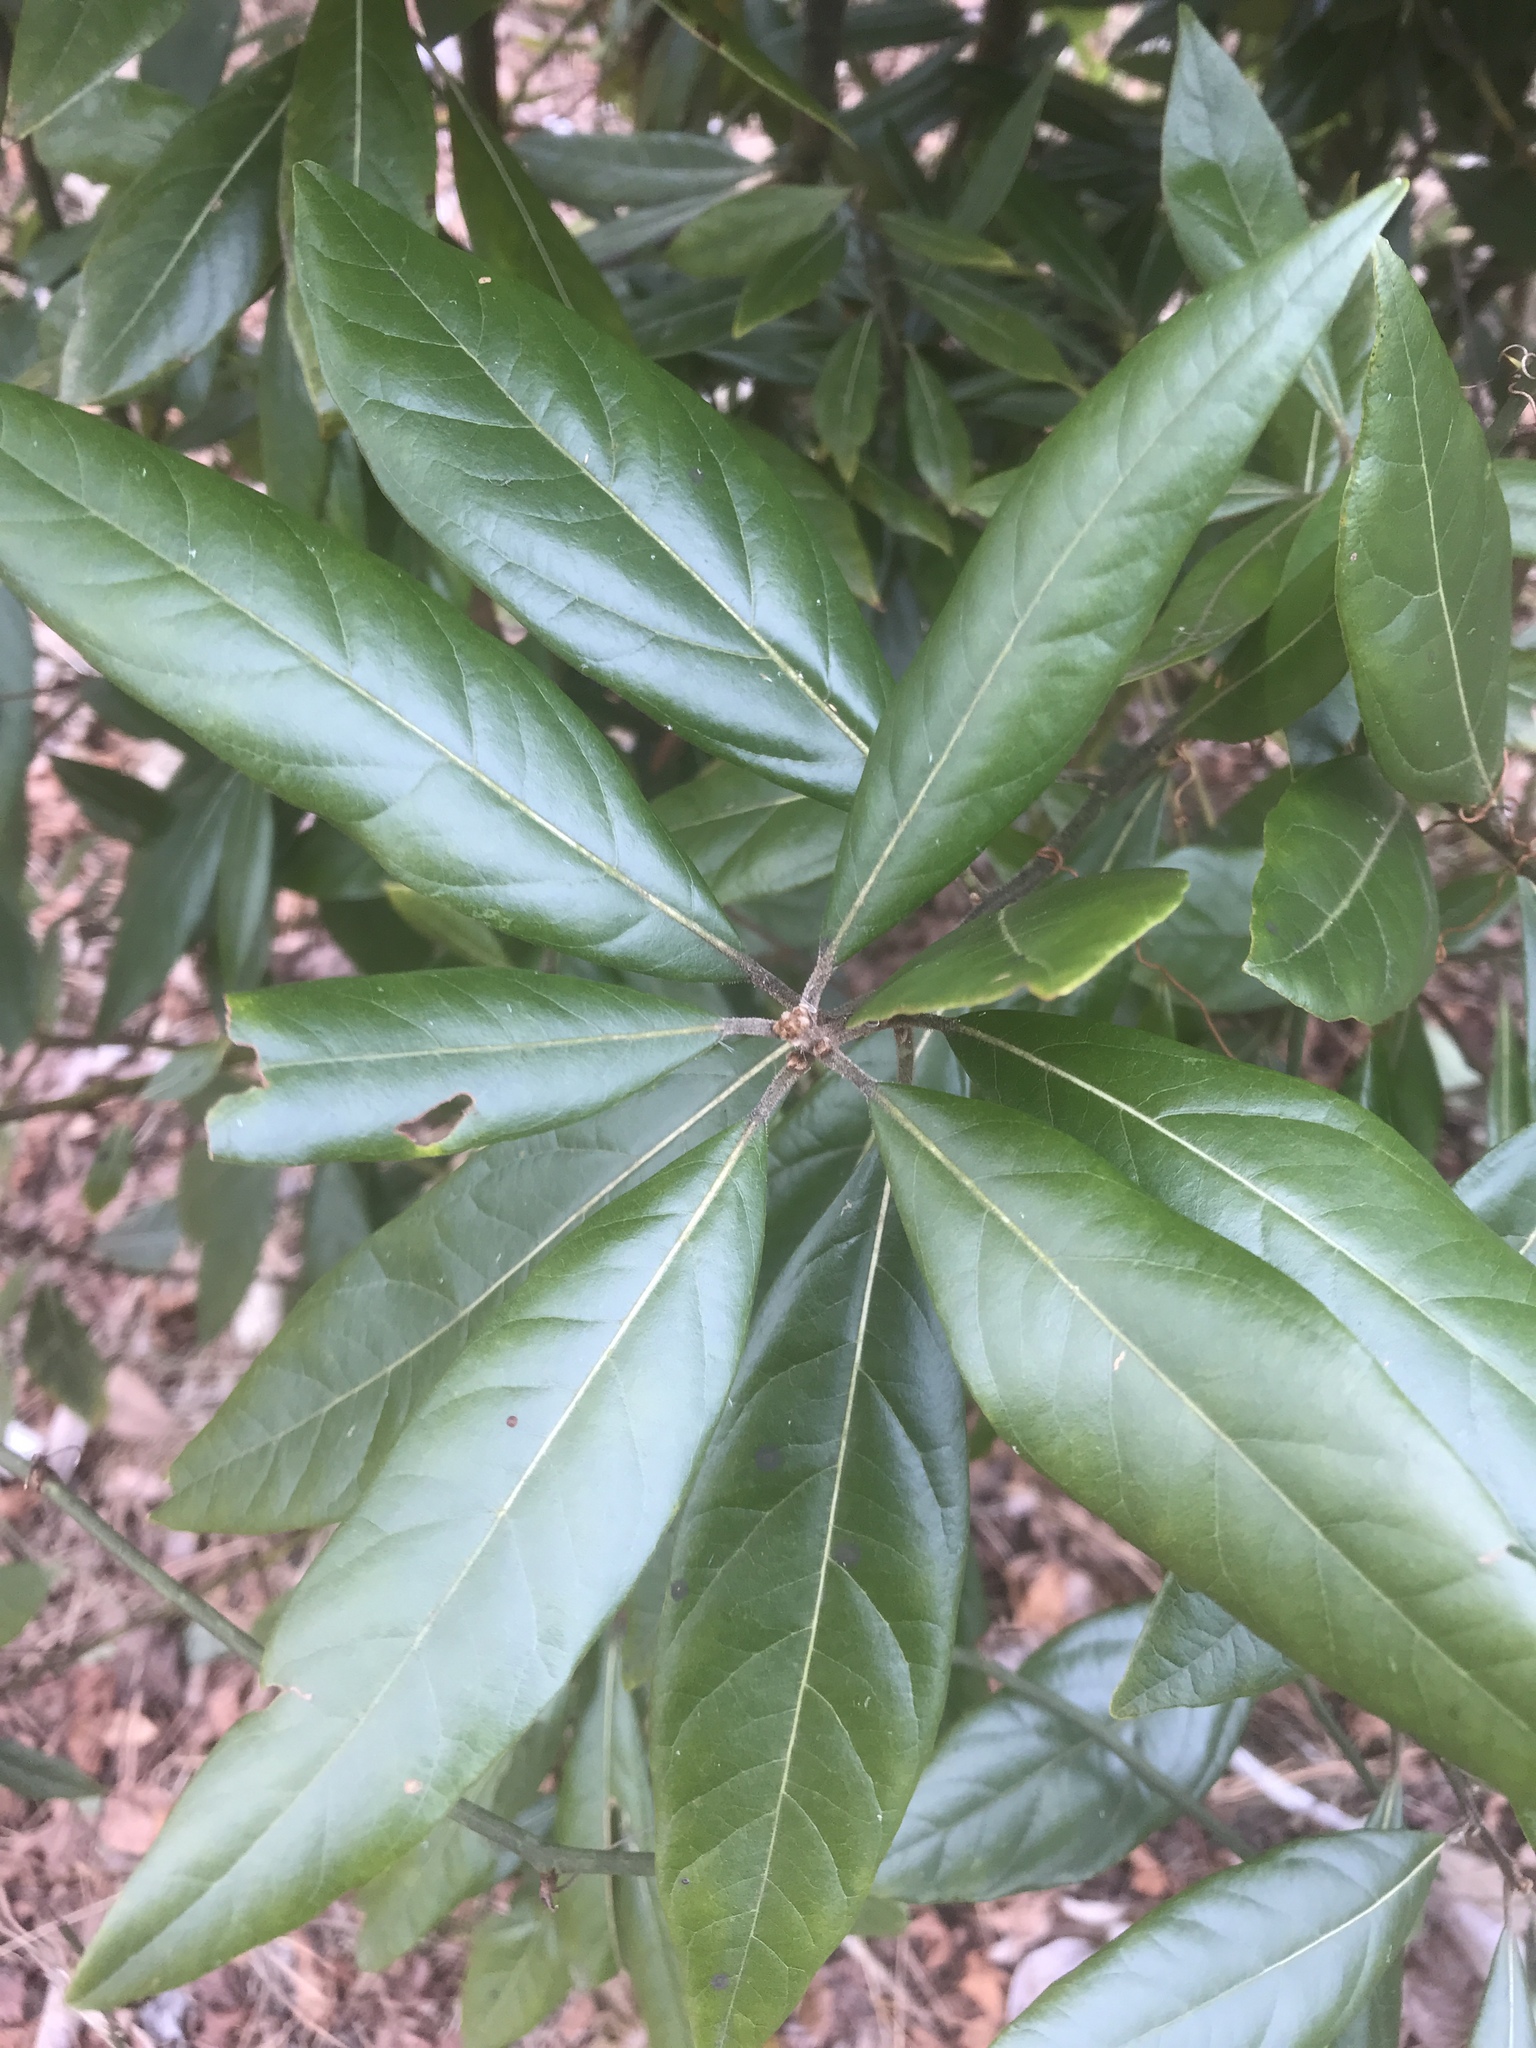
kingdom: Plantae
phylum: Tracheophyta
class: Magnoliopsida
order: Laurales
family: Lauraceae
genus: Persea
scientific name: Persea palustris
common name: Swampbay
